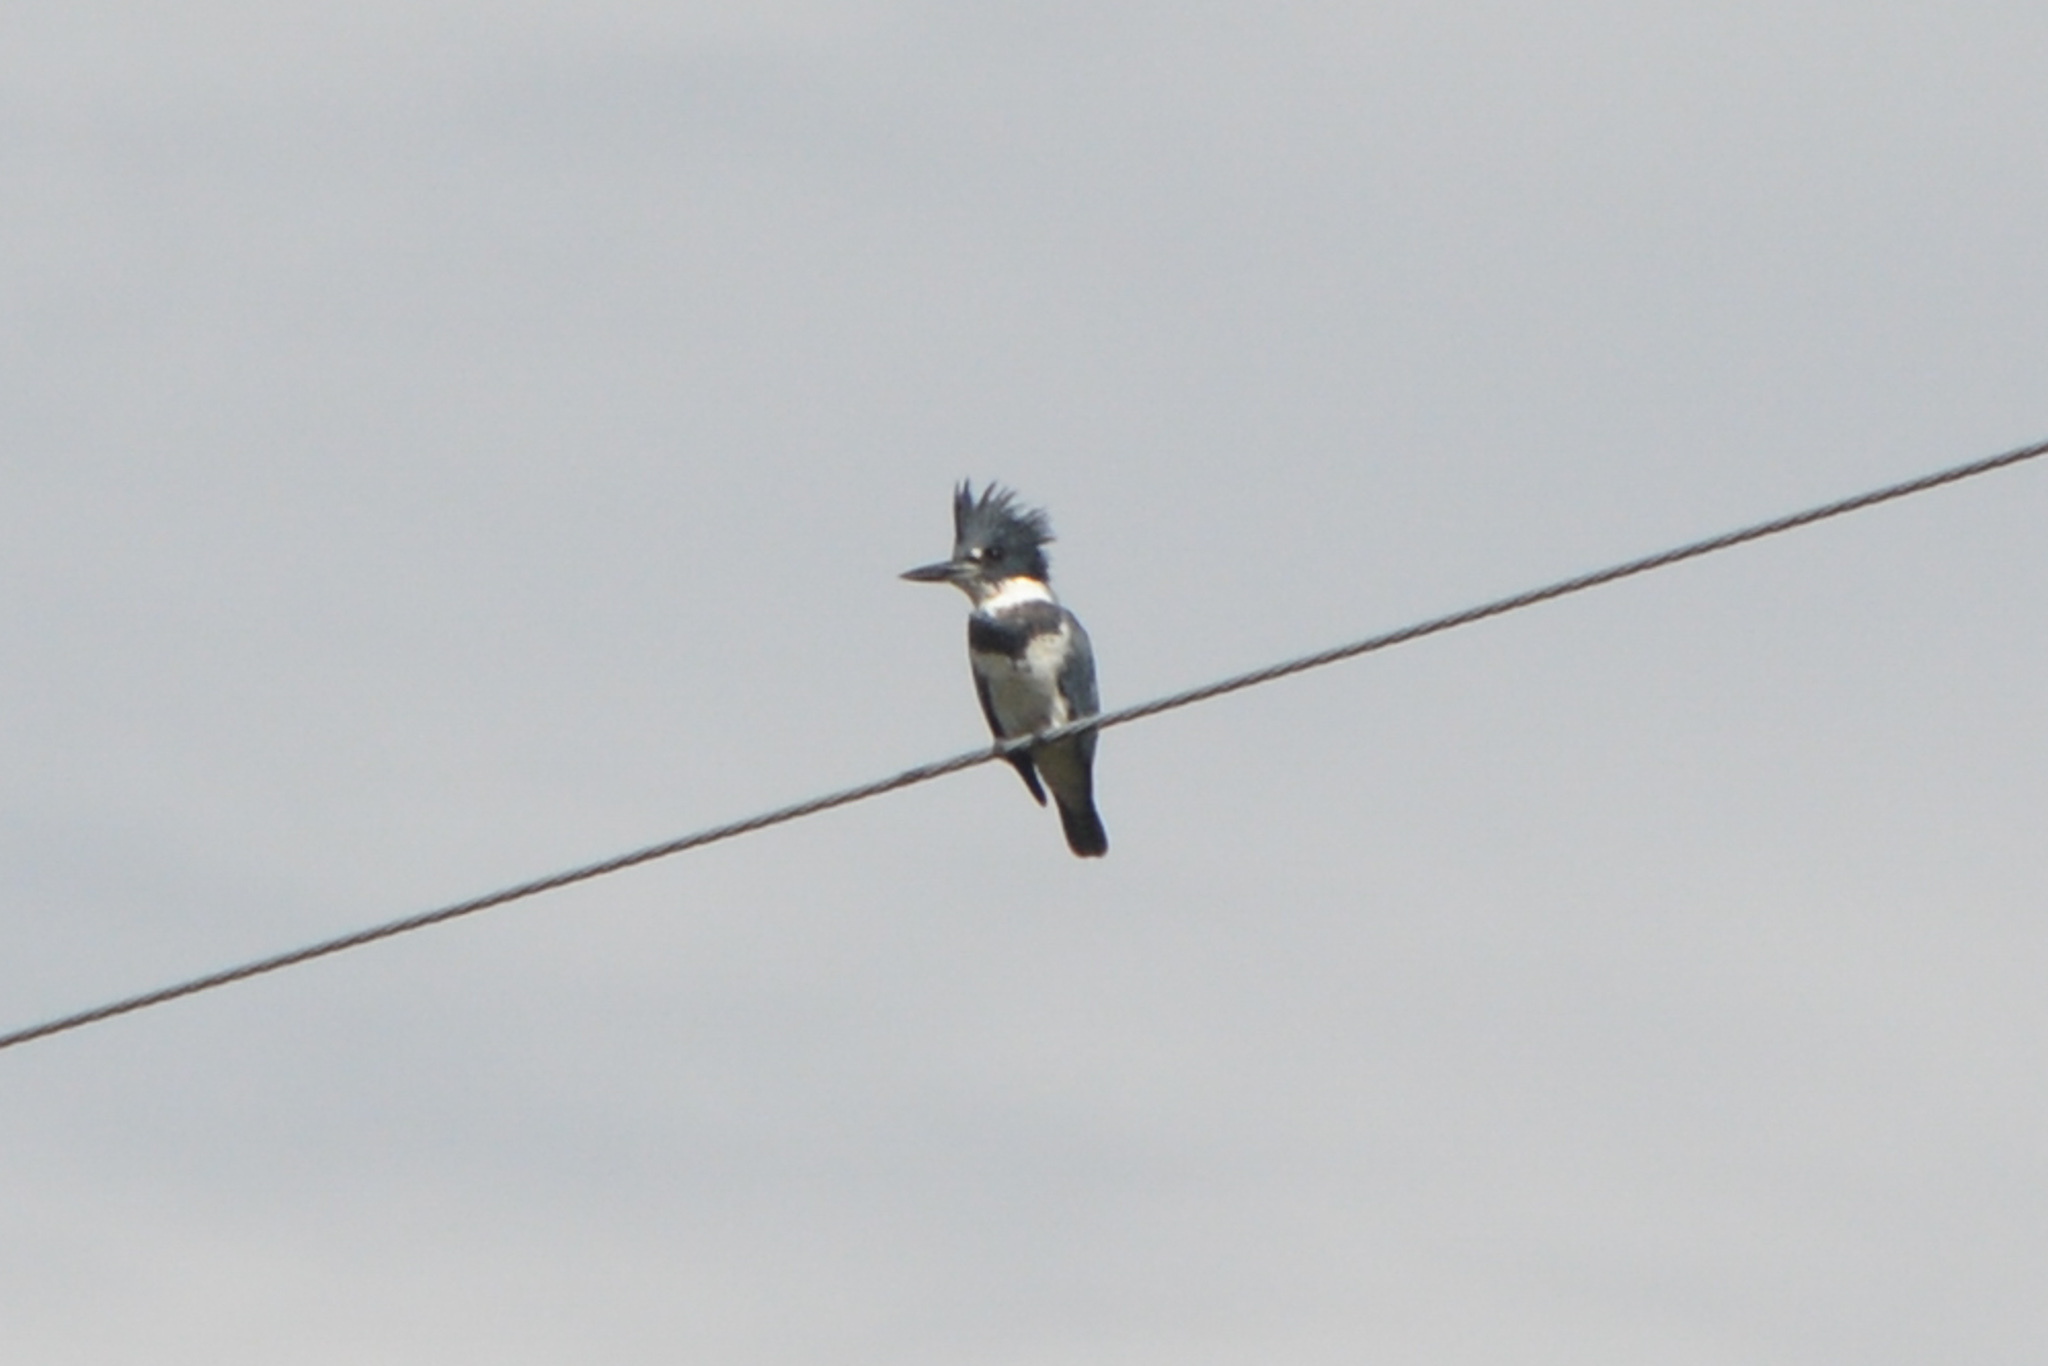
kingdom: Animalia
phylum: Chordata
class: Aves
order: Coraciiformes
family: Alcedinidae
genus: Megaceryle
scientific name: Megaceryle alcyon
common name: Belted kingfisher
